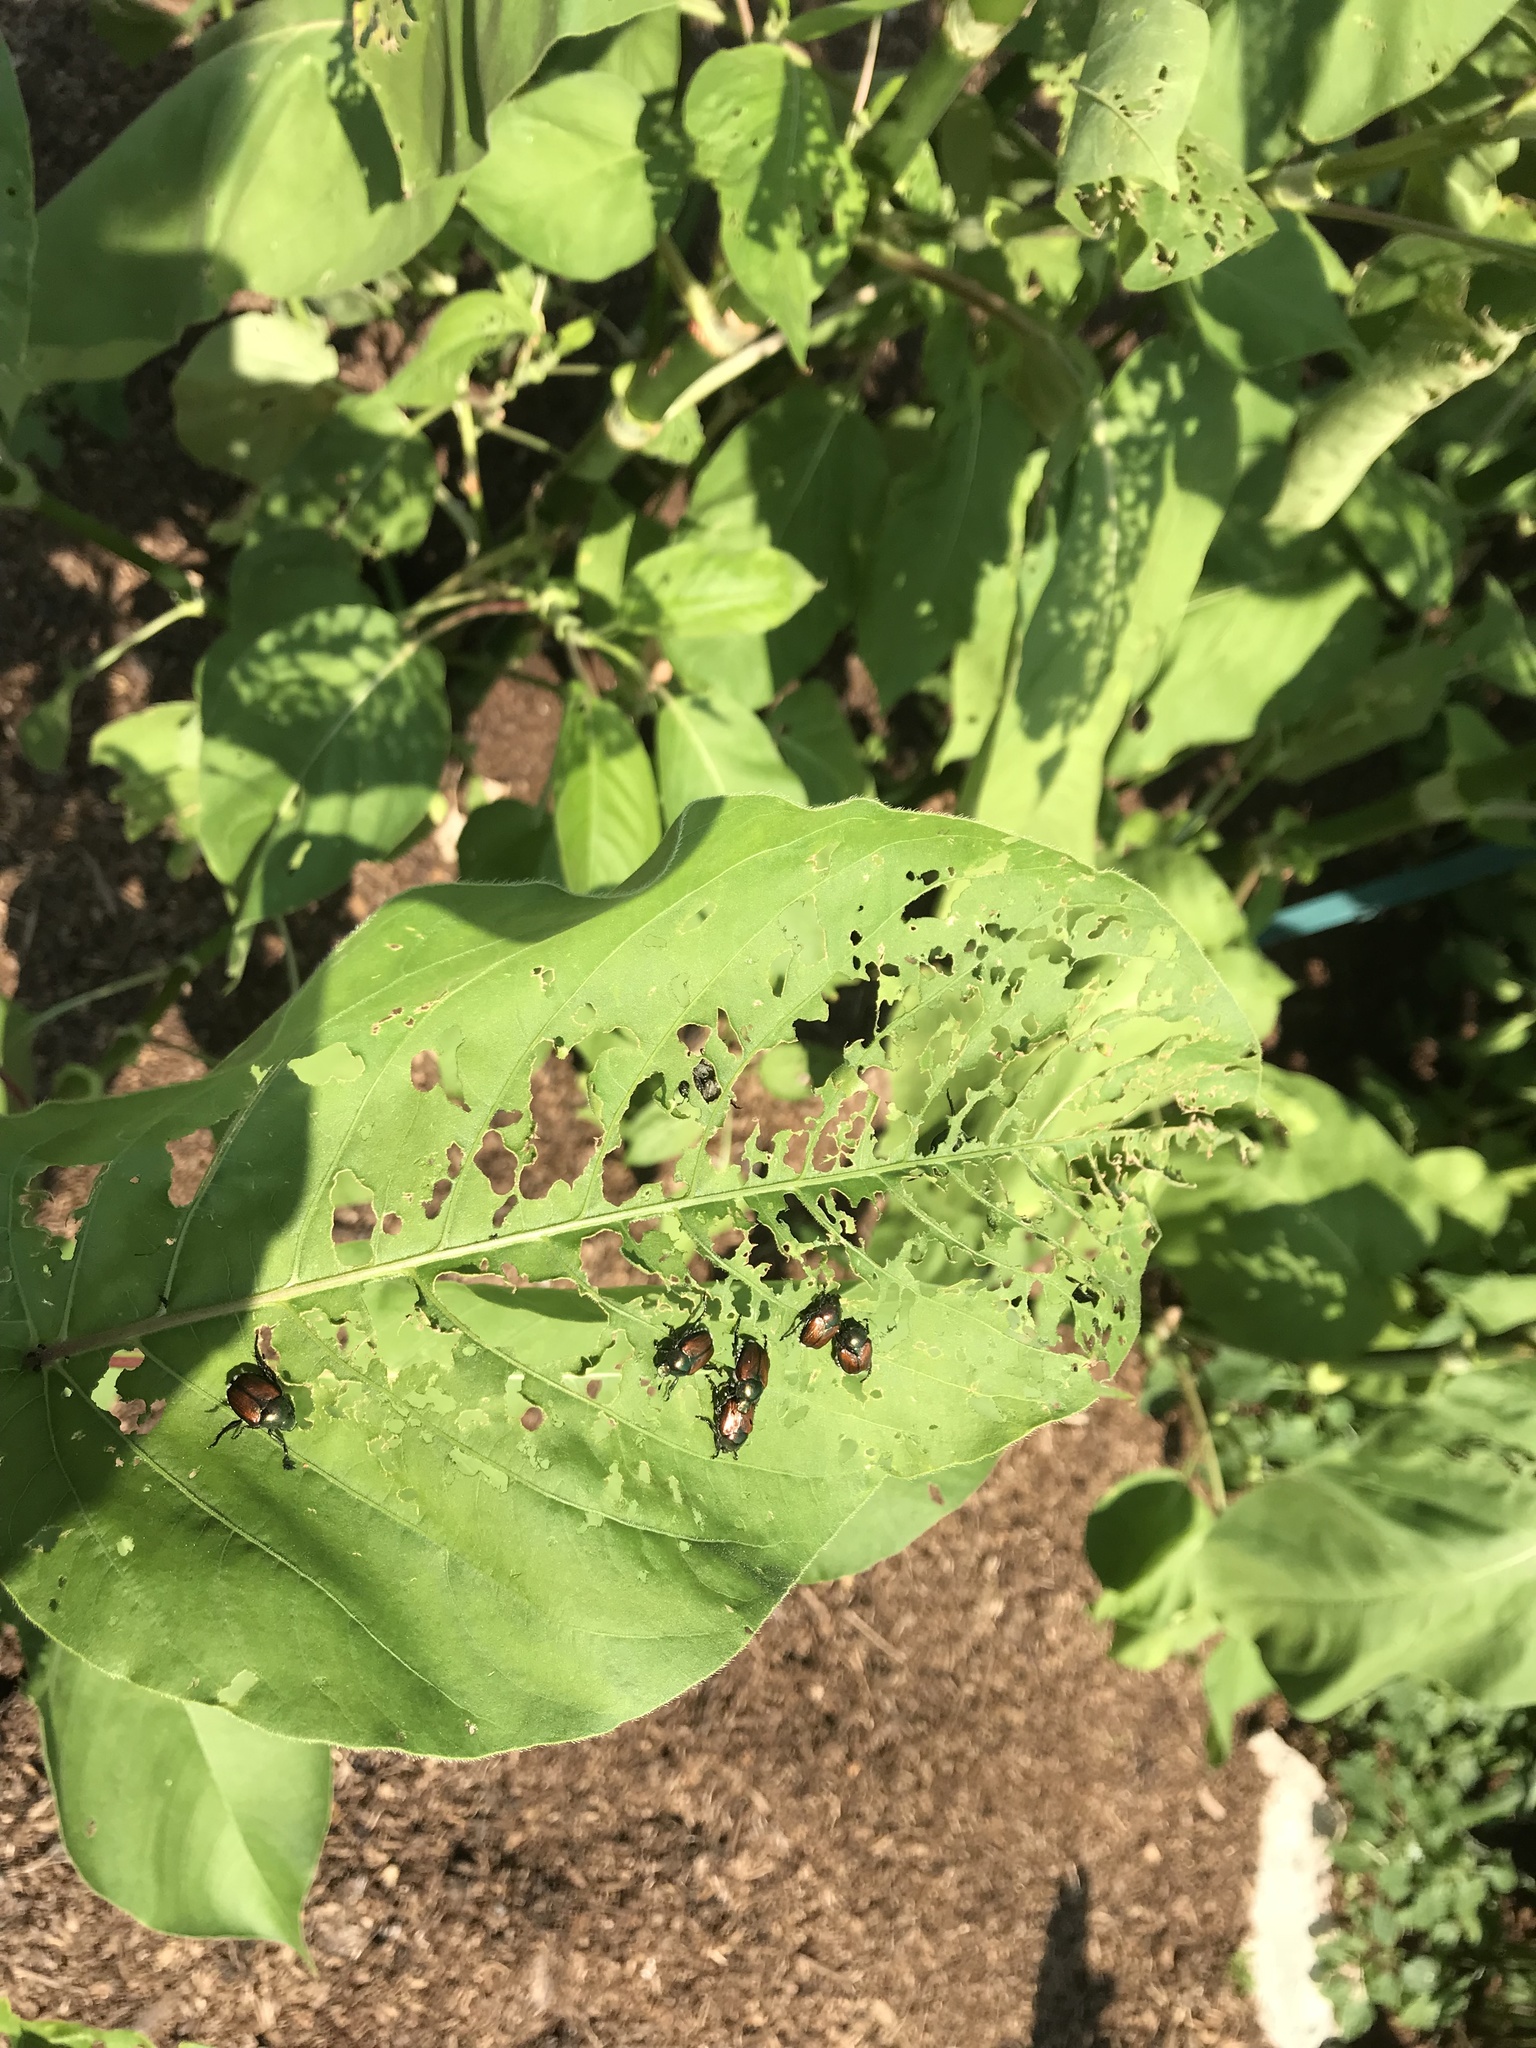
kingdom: Animalia
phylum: Arthropoda
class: Insecta
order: Coleoptera
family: Scarabaeidae
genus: Popillia
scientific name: Popillia japonica
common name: Japanese beetle
